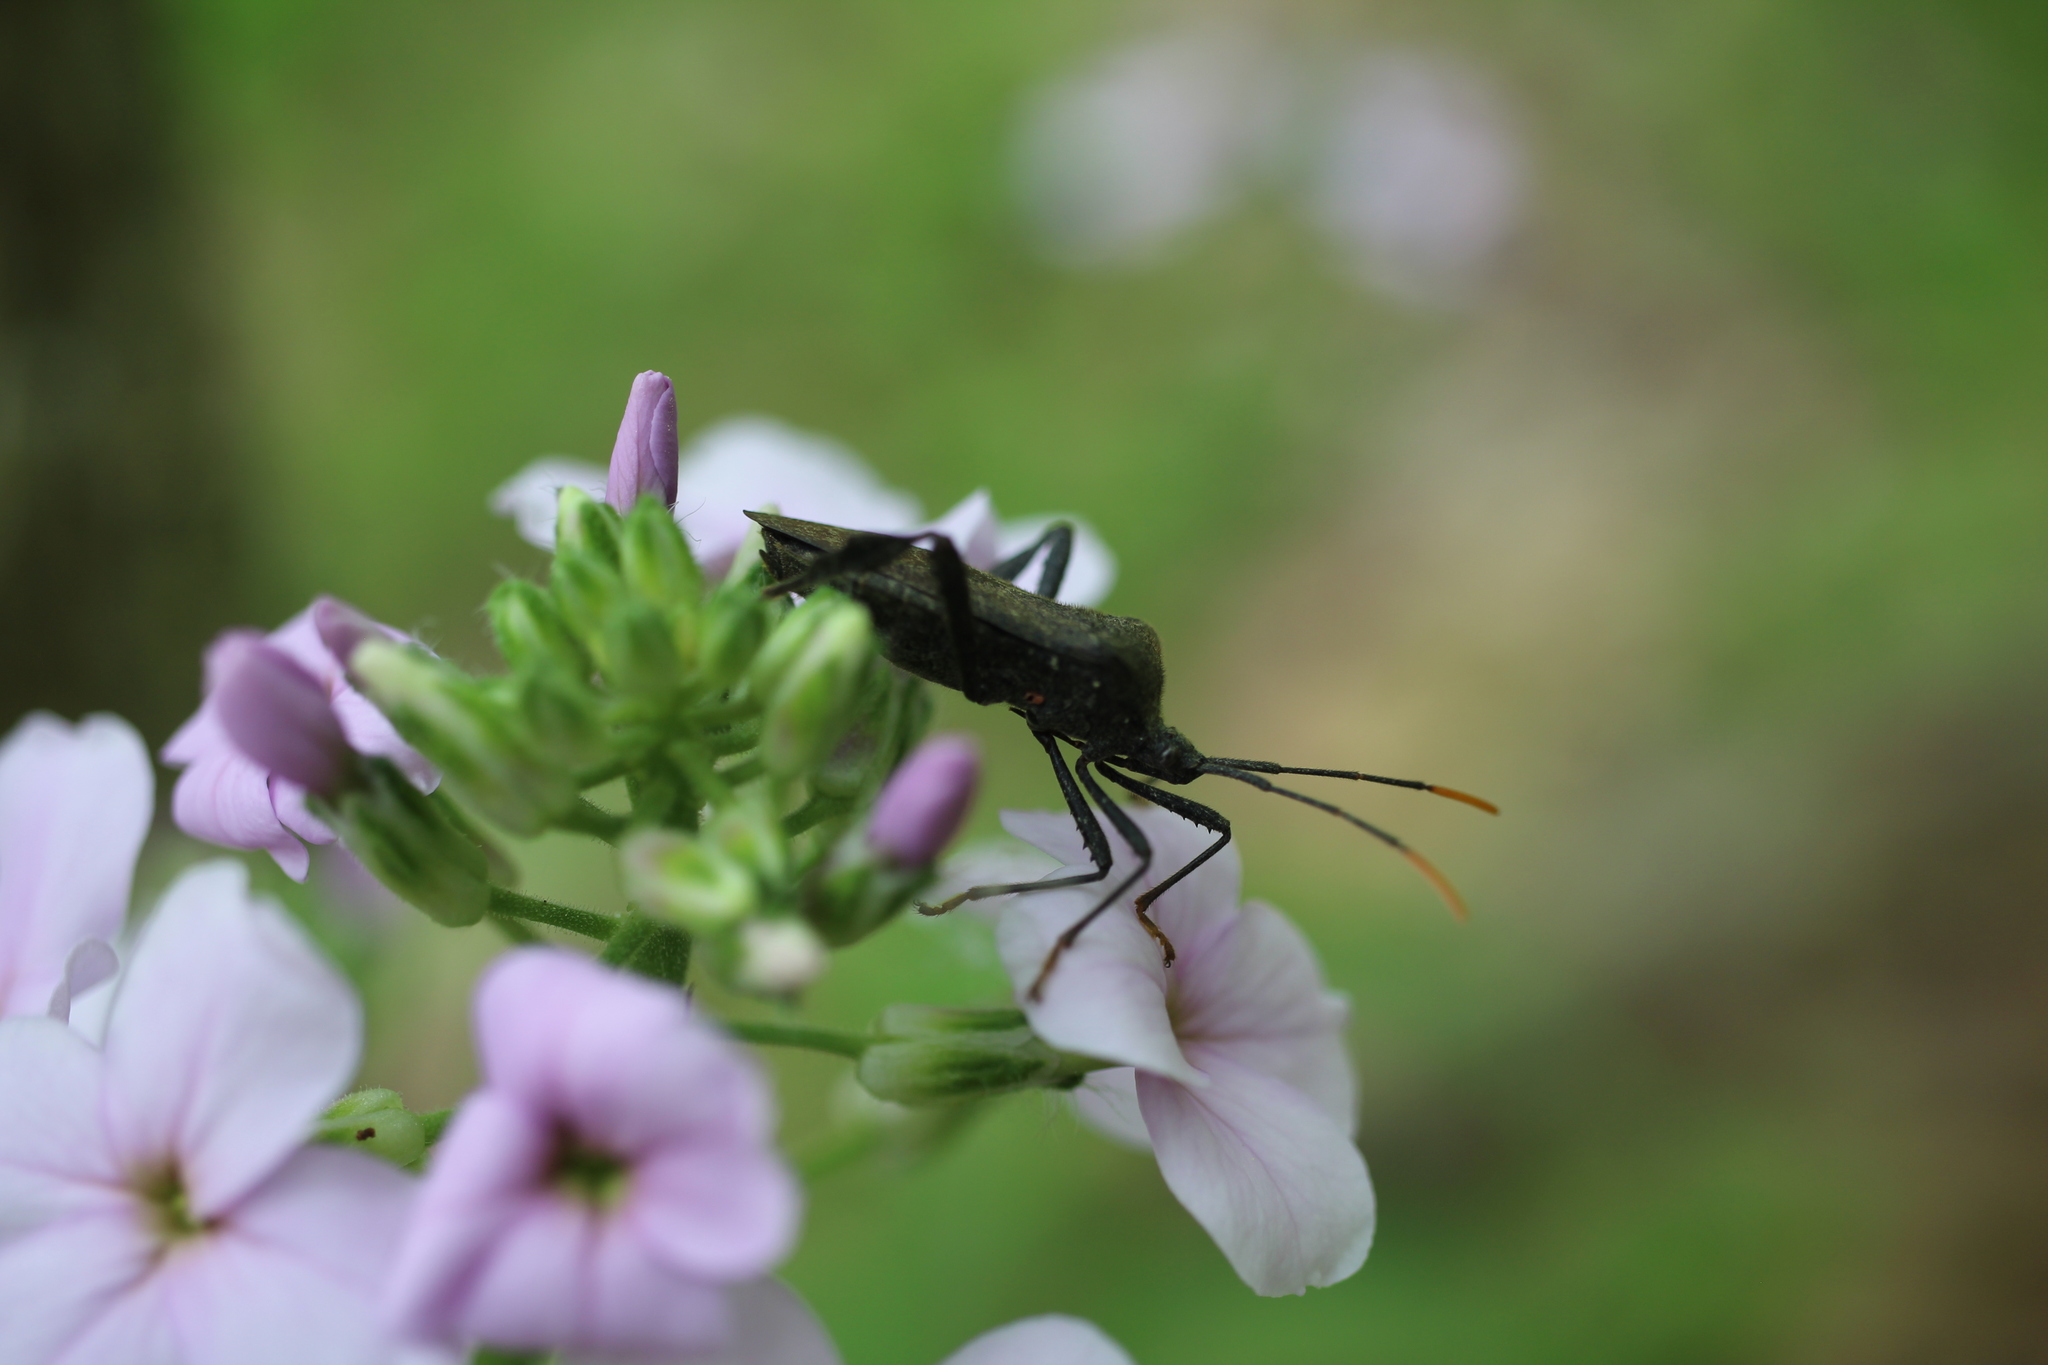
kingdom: Animalia
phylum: Arthropoda
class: Insecta
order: Hemiptera
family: Coreidae
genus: Acanthocephala
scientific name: Acanthocephala terminalis
